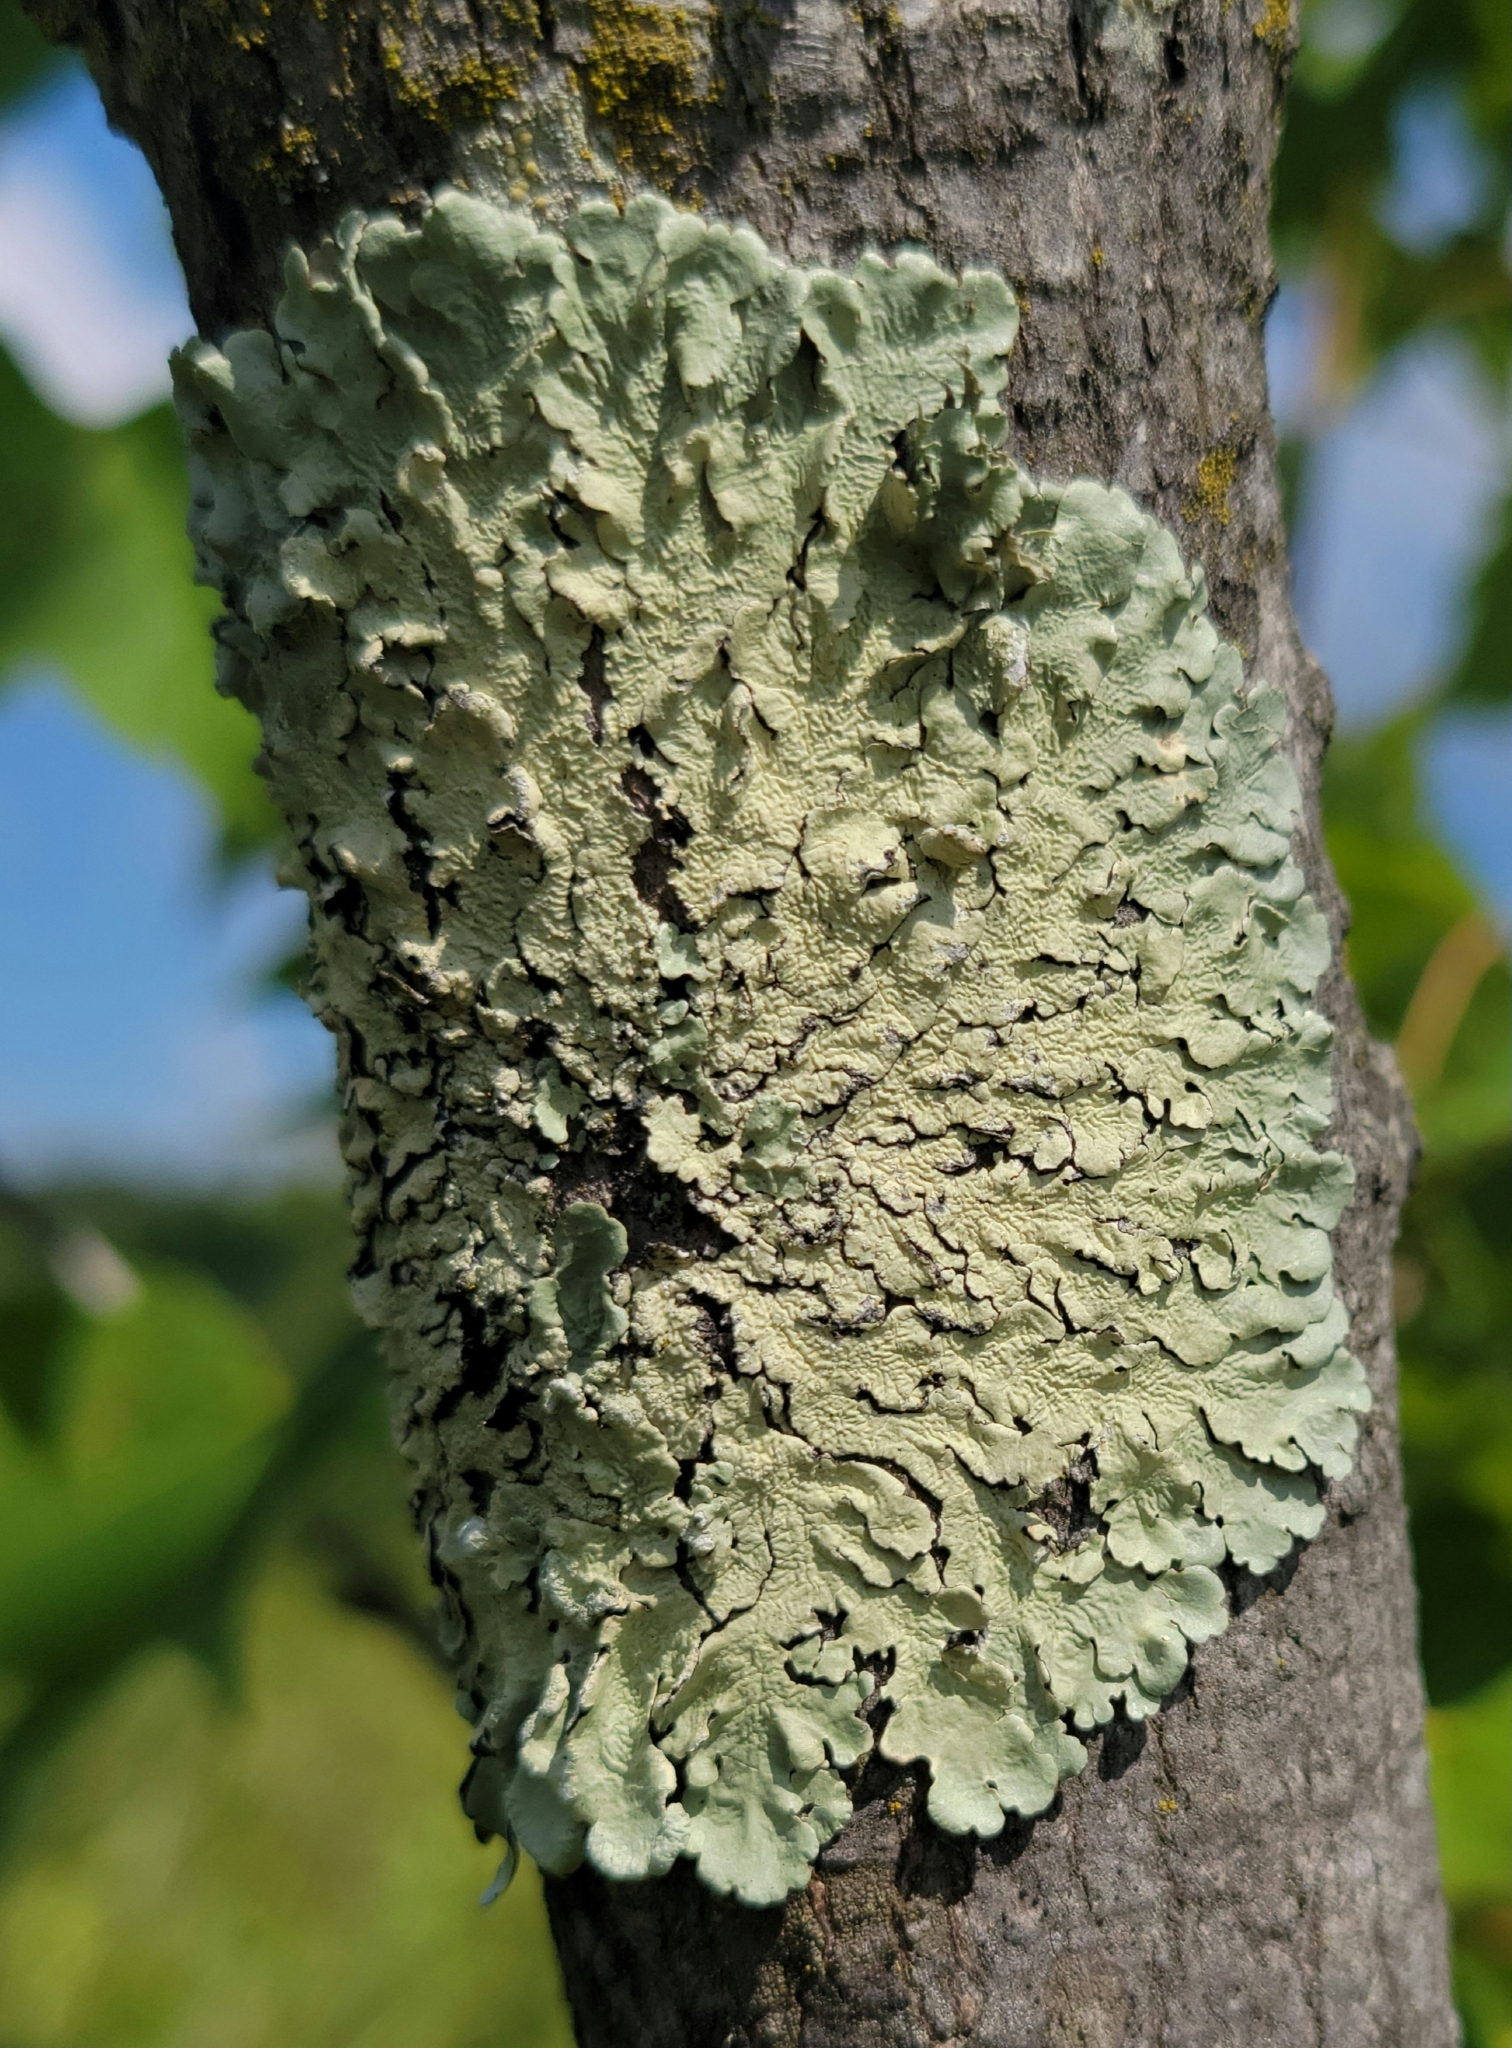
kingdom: Fungi
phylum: Ascomycota
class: Lecanoromycetes
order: Lecanorales
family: Parmeliaceae
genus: Flavoparmelia
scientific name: Flavoparmelia caperata
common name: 40-mile per hour lichen
